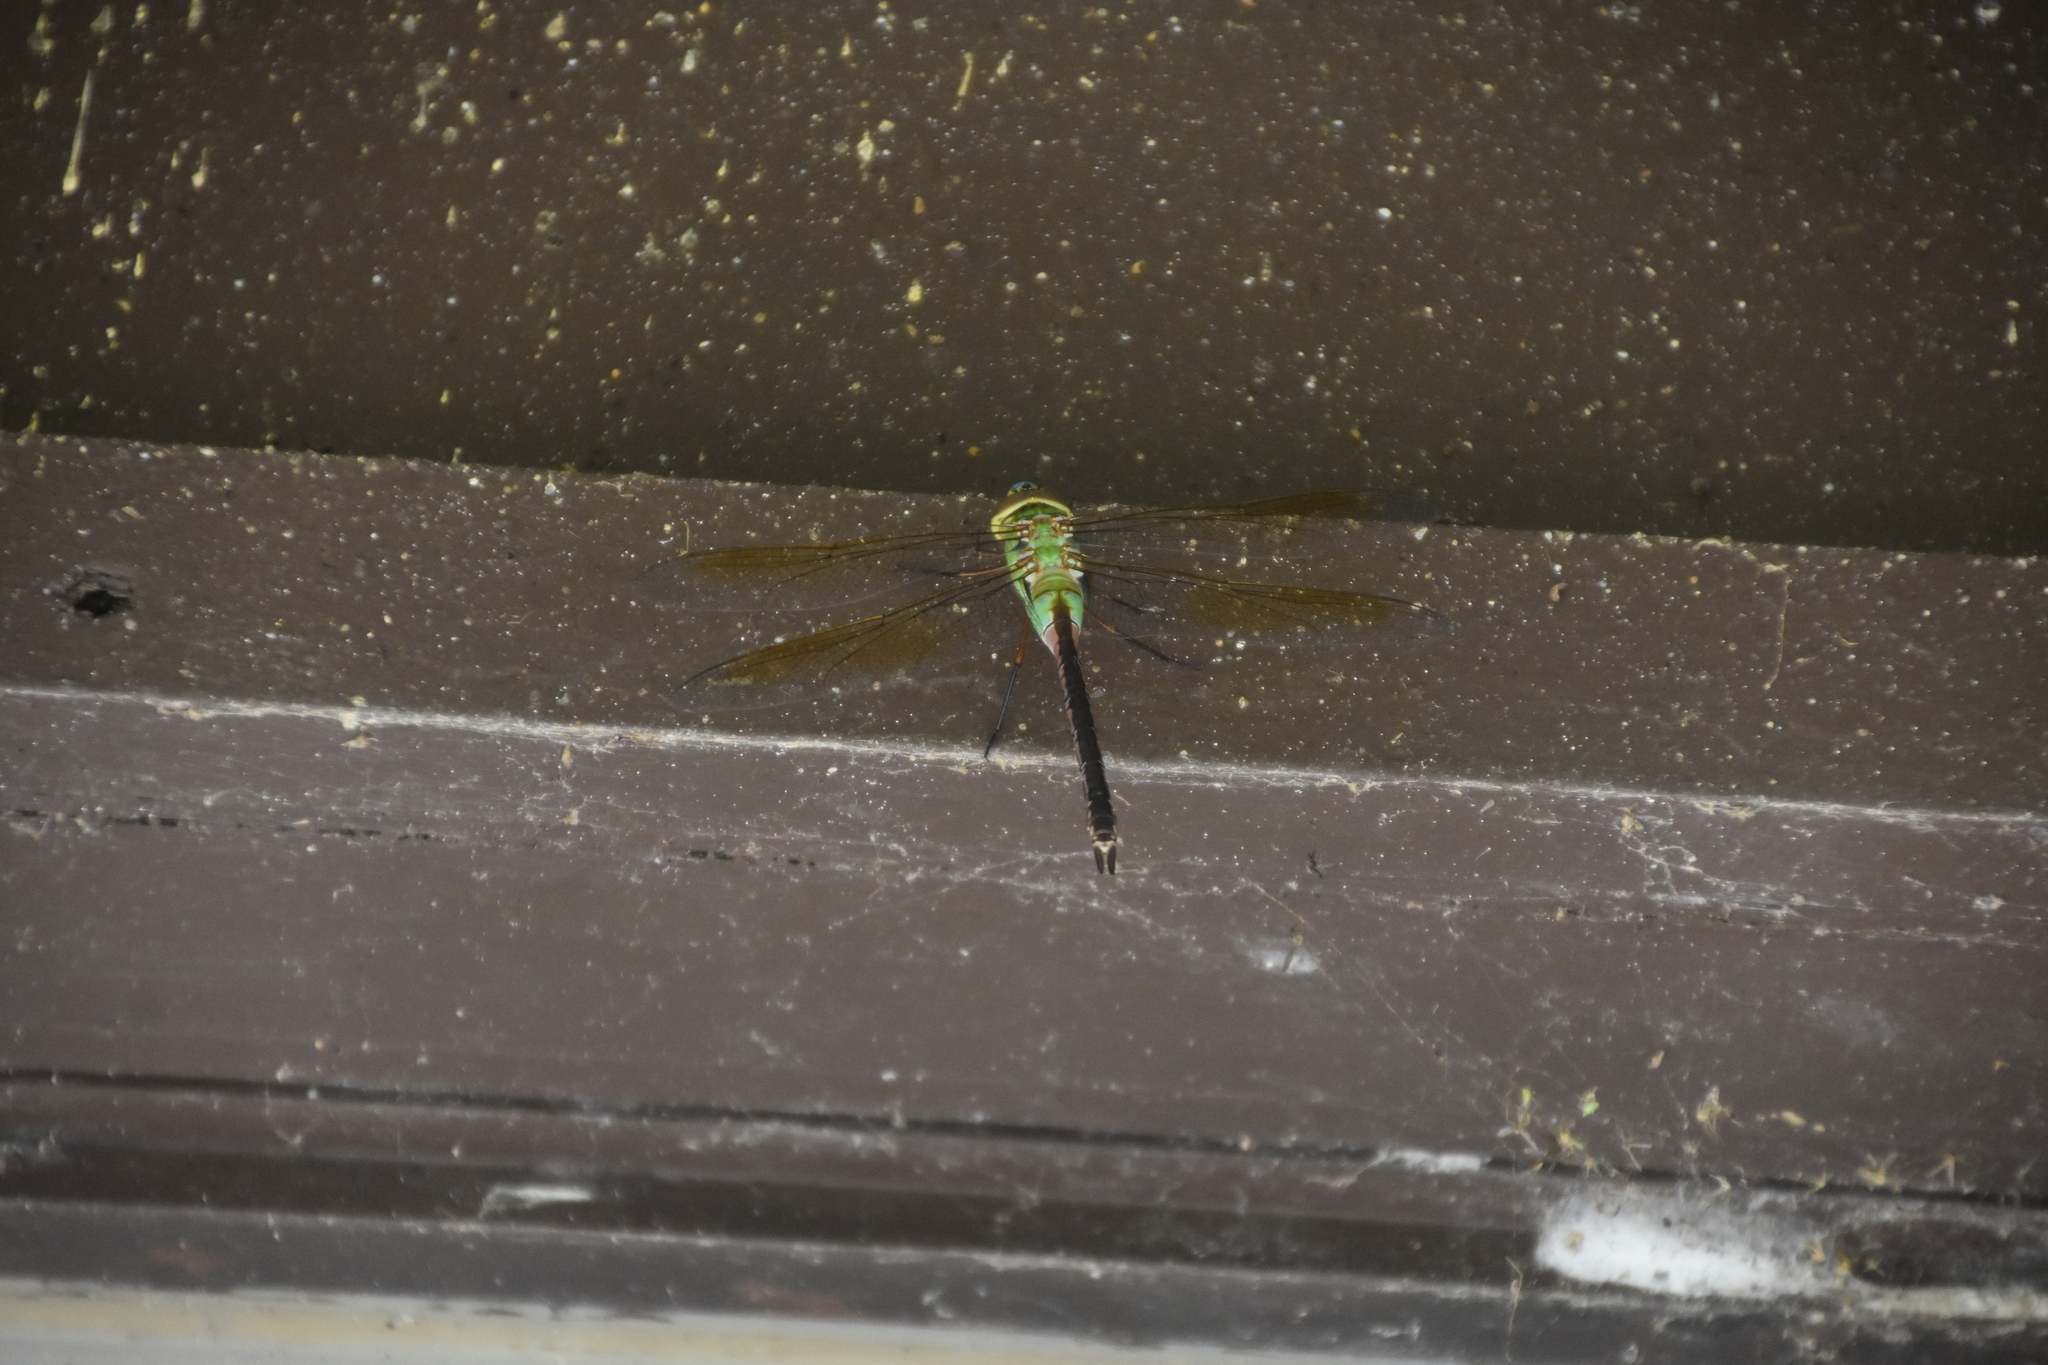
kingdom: Animalia
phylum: Arthropoda
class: Insecta
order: Odonata
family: Aeshnidae
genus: Anax
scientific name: Anax junius
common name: Common green darner
